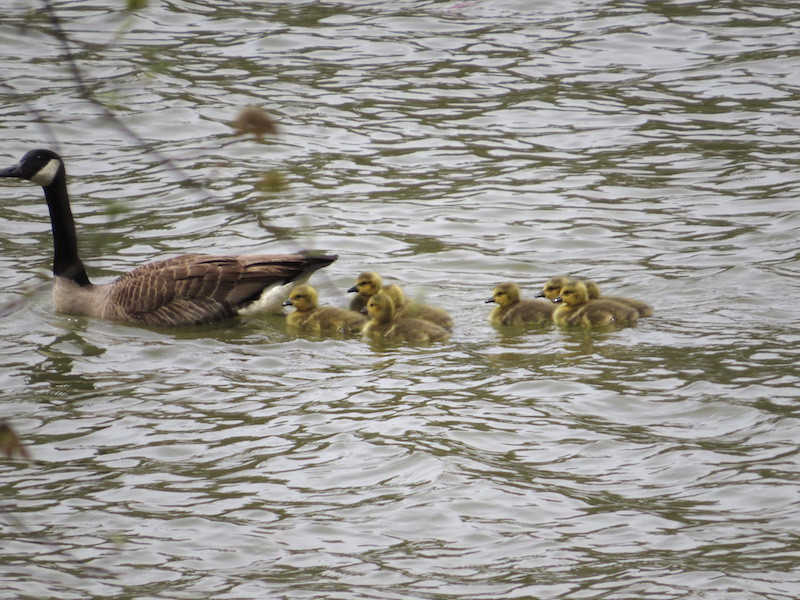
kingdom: Animalia
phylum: Chordata
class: Aves
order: Anseriformes
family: Anatidae
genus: Branta
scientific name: Branta canadensis
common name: Canada goose
